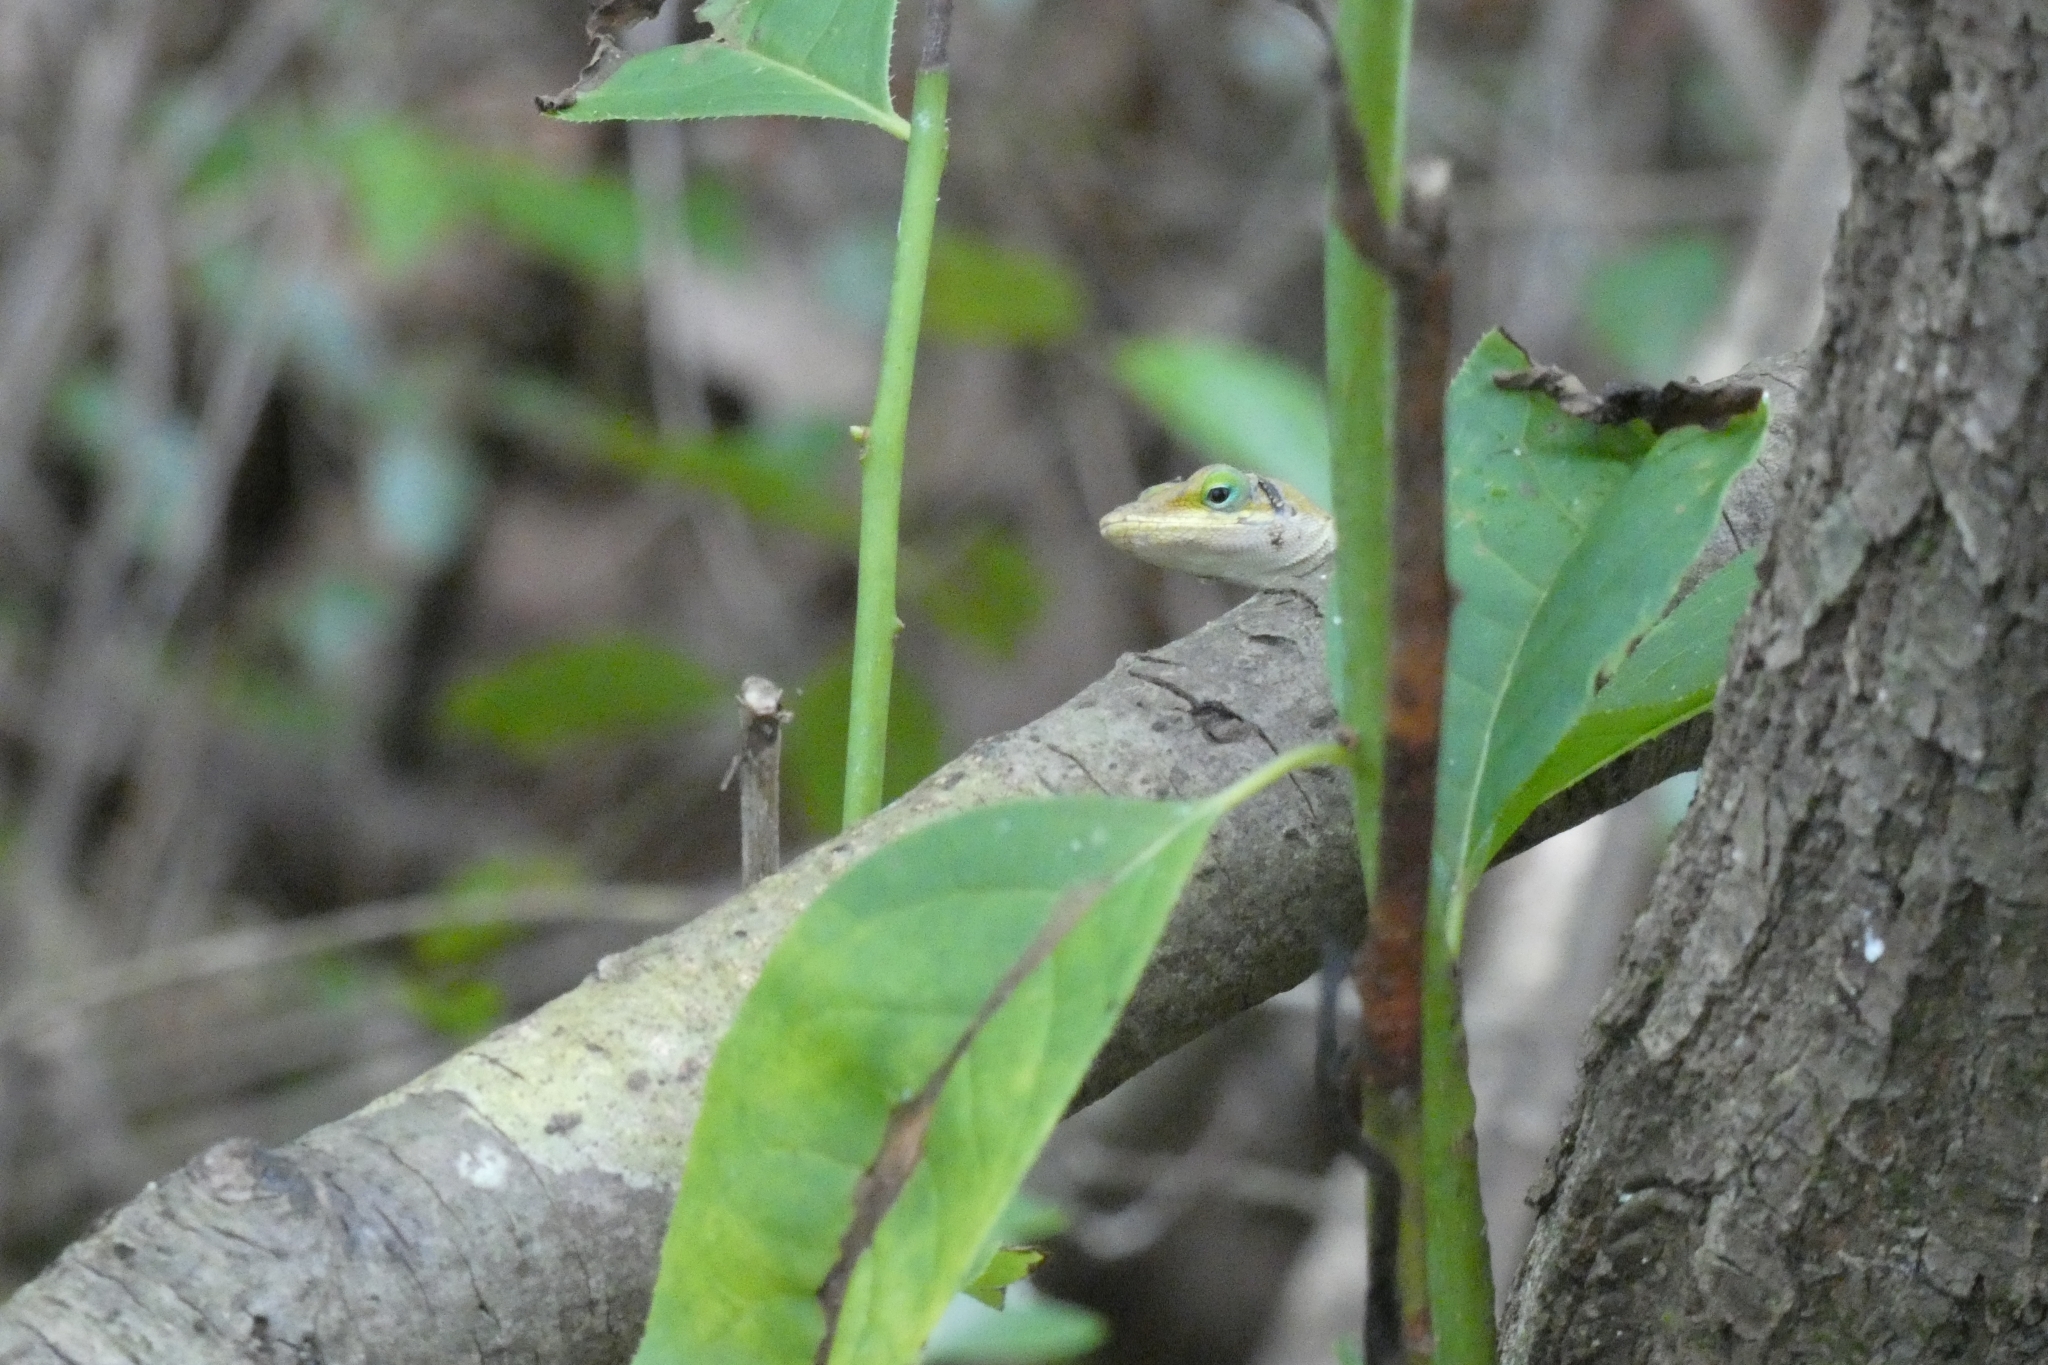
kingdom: Animalia
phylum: Chordata
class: Squamata
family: Dactyloidae
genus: Anolis
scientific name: Anolis carolinensis
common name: Green anole
